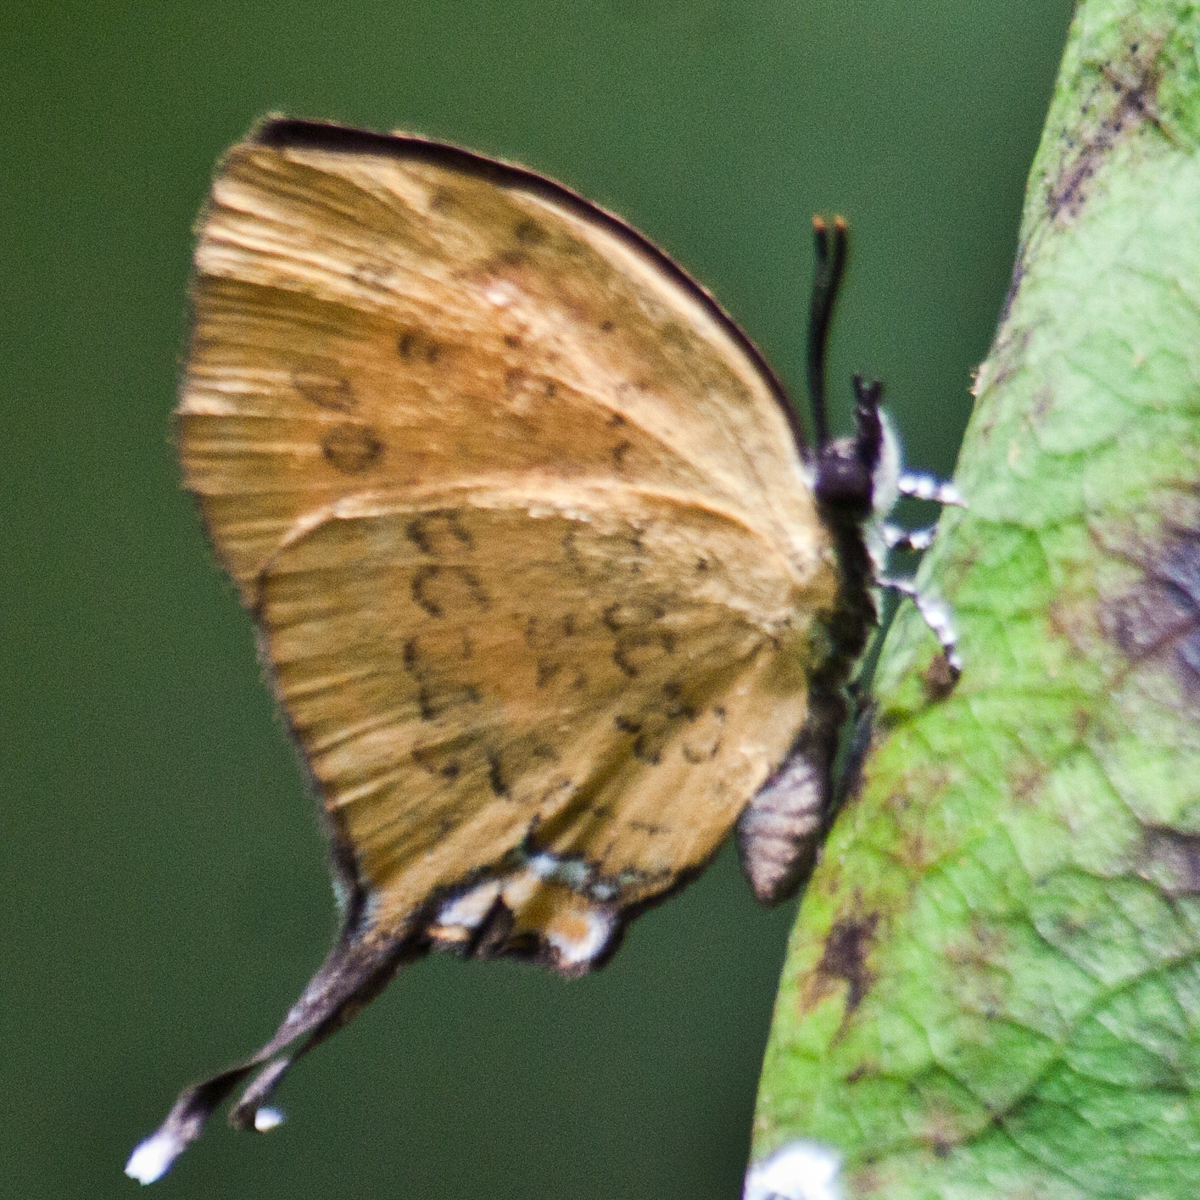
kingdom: Animalia
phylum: Arthropoda
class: Insecta
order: Lepidoptera
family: Lycaenidae
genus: Yasoda
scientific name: Yasoda tripunctata
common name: Branded yamfly
